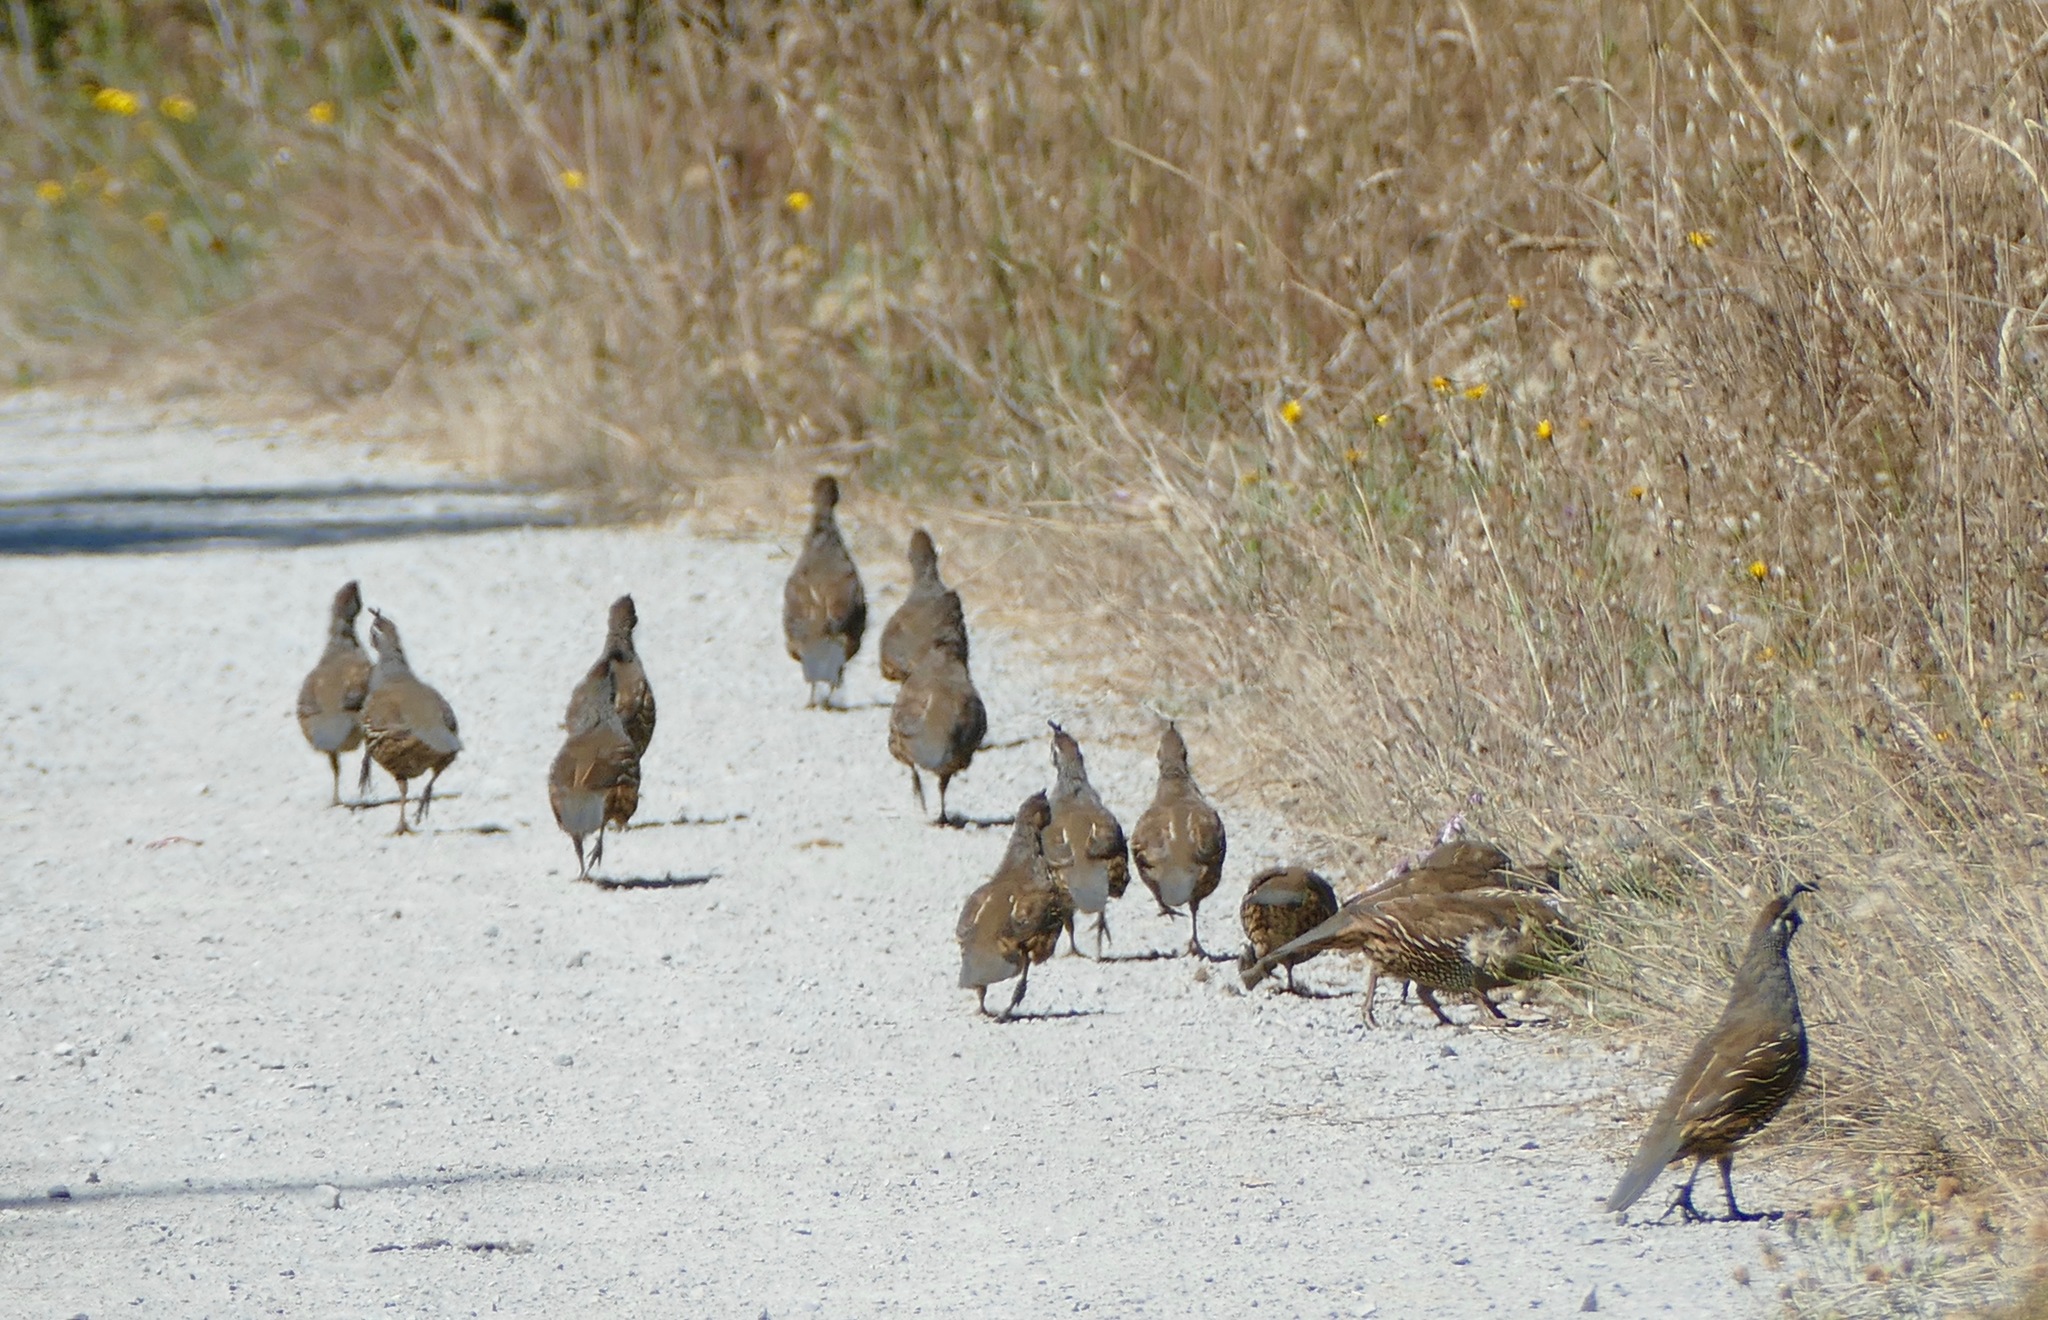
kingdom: Animalia
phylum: Chordata
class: Aves
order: Galliformes
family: Odontophoridae
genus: Callipepla
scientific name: Callipepla californica
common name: California quail
